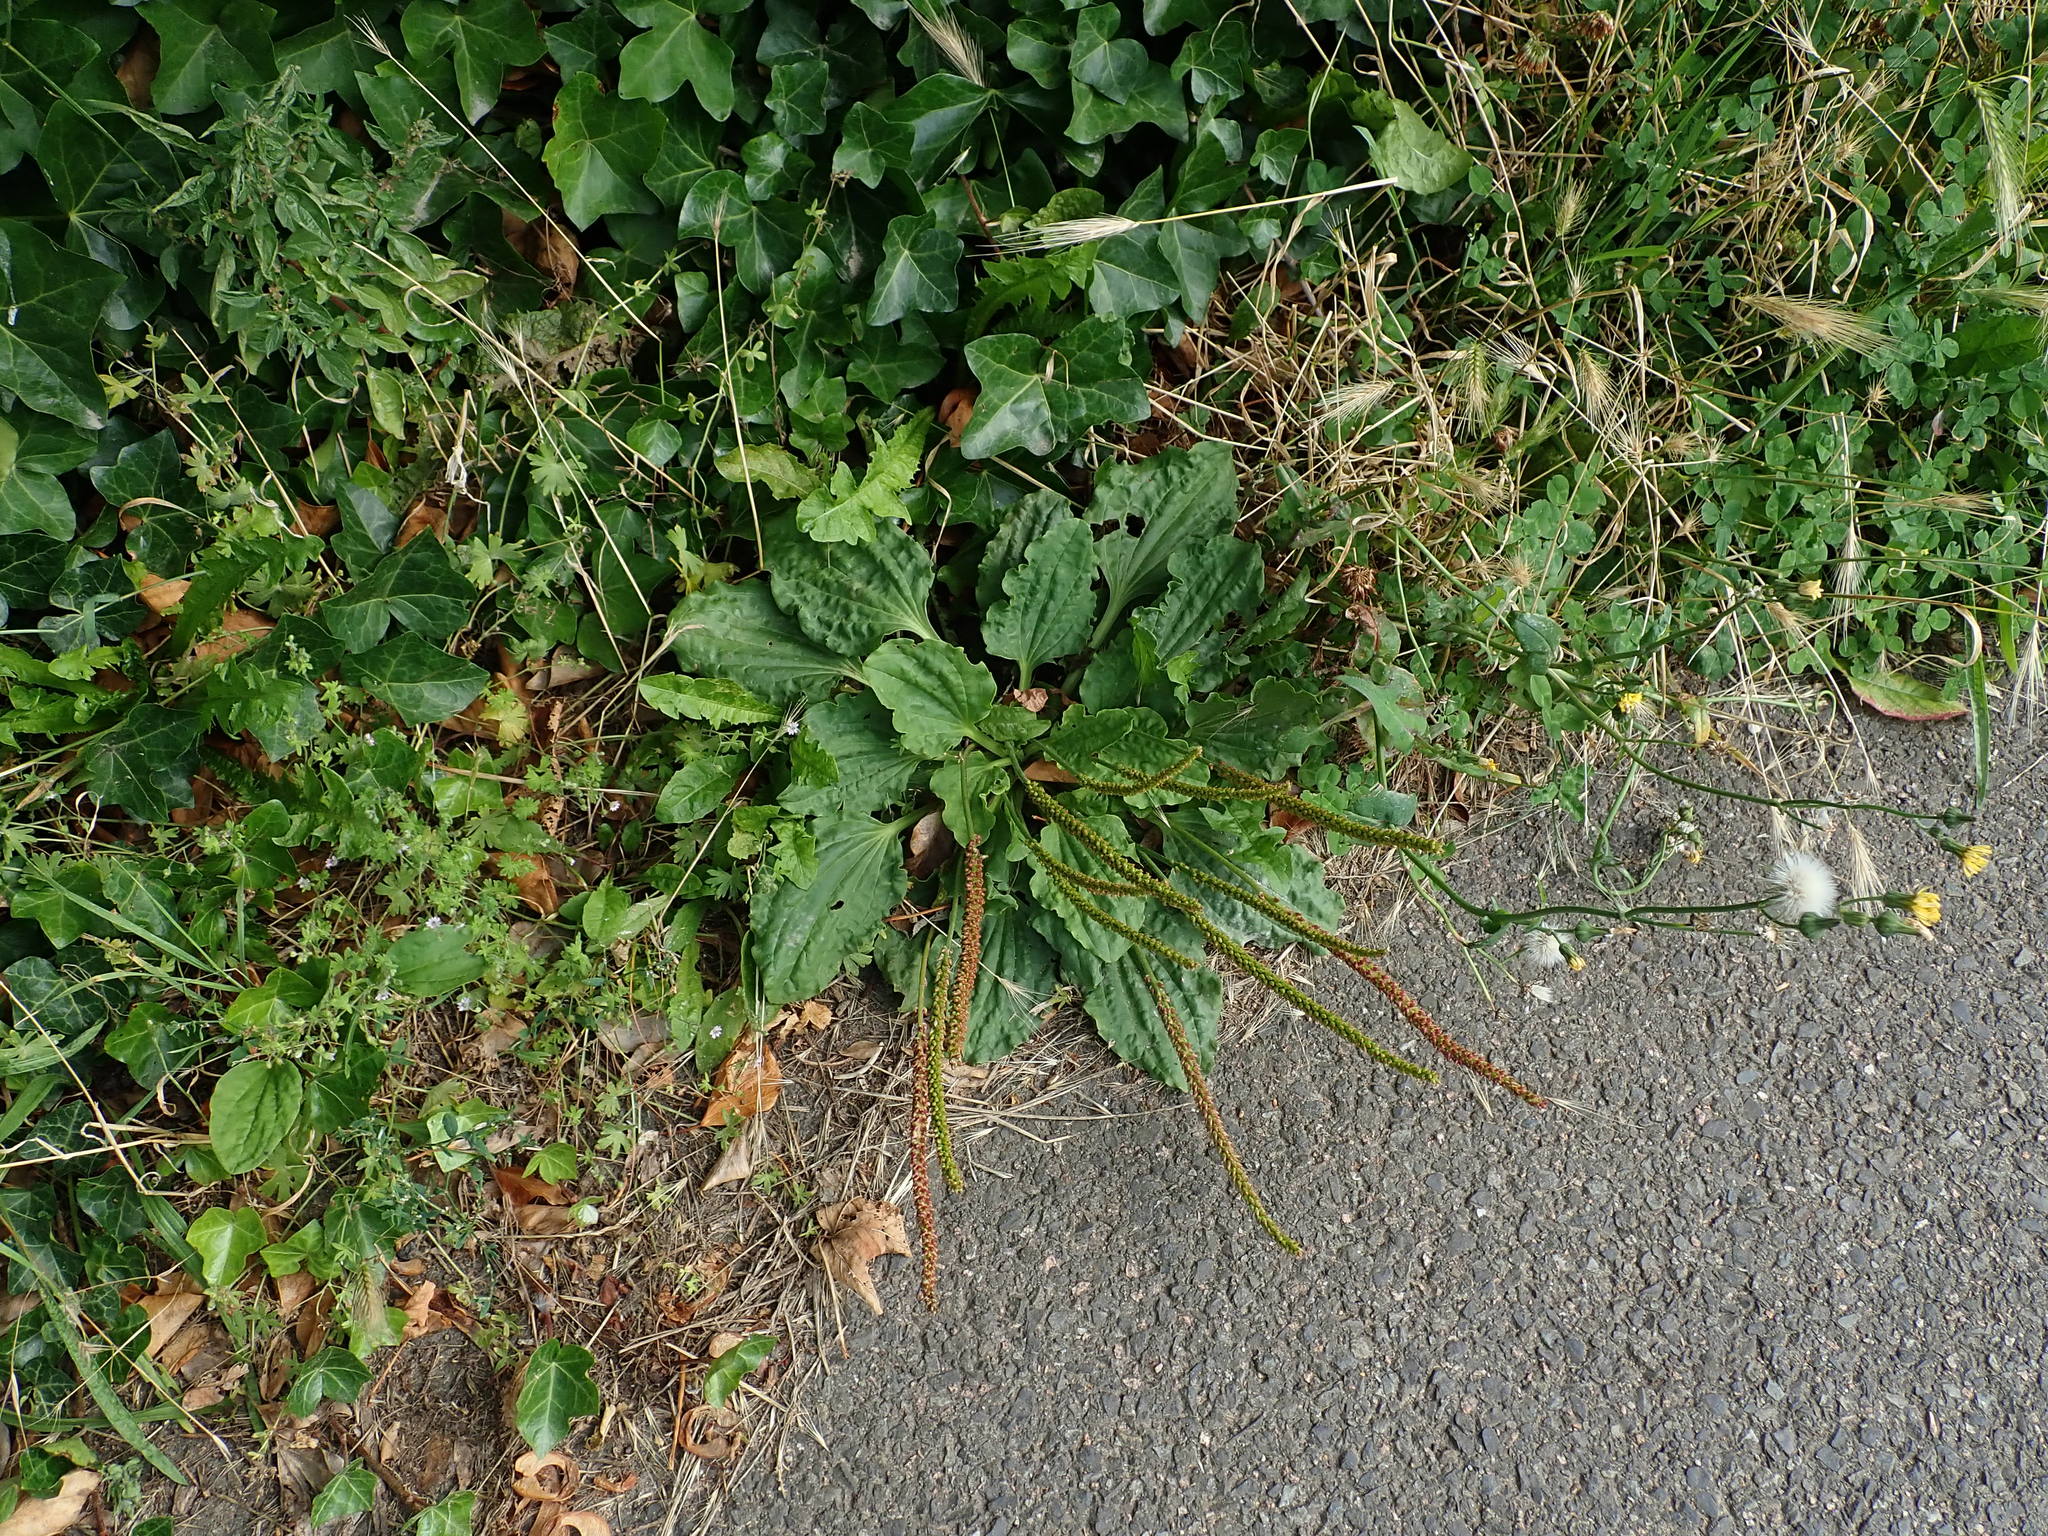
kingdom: Plantae
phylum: Tracheophyta
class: Magnoliopsida
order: Lamiales
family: Plantaginaceae
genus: Plantago
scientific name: Plantago major
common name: Common plantain
